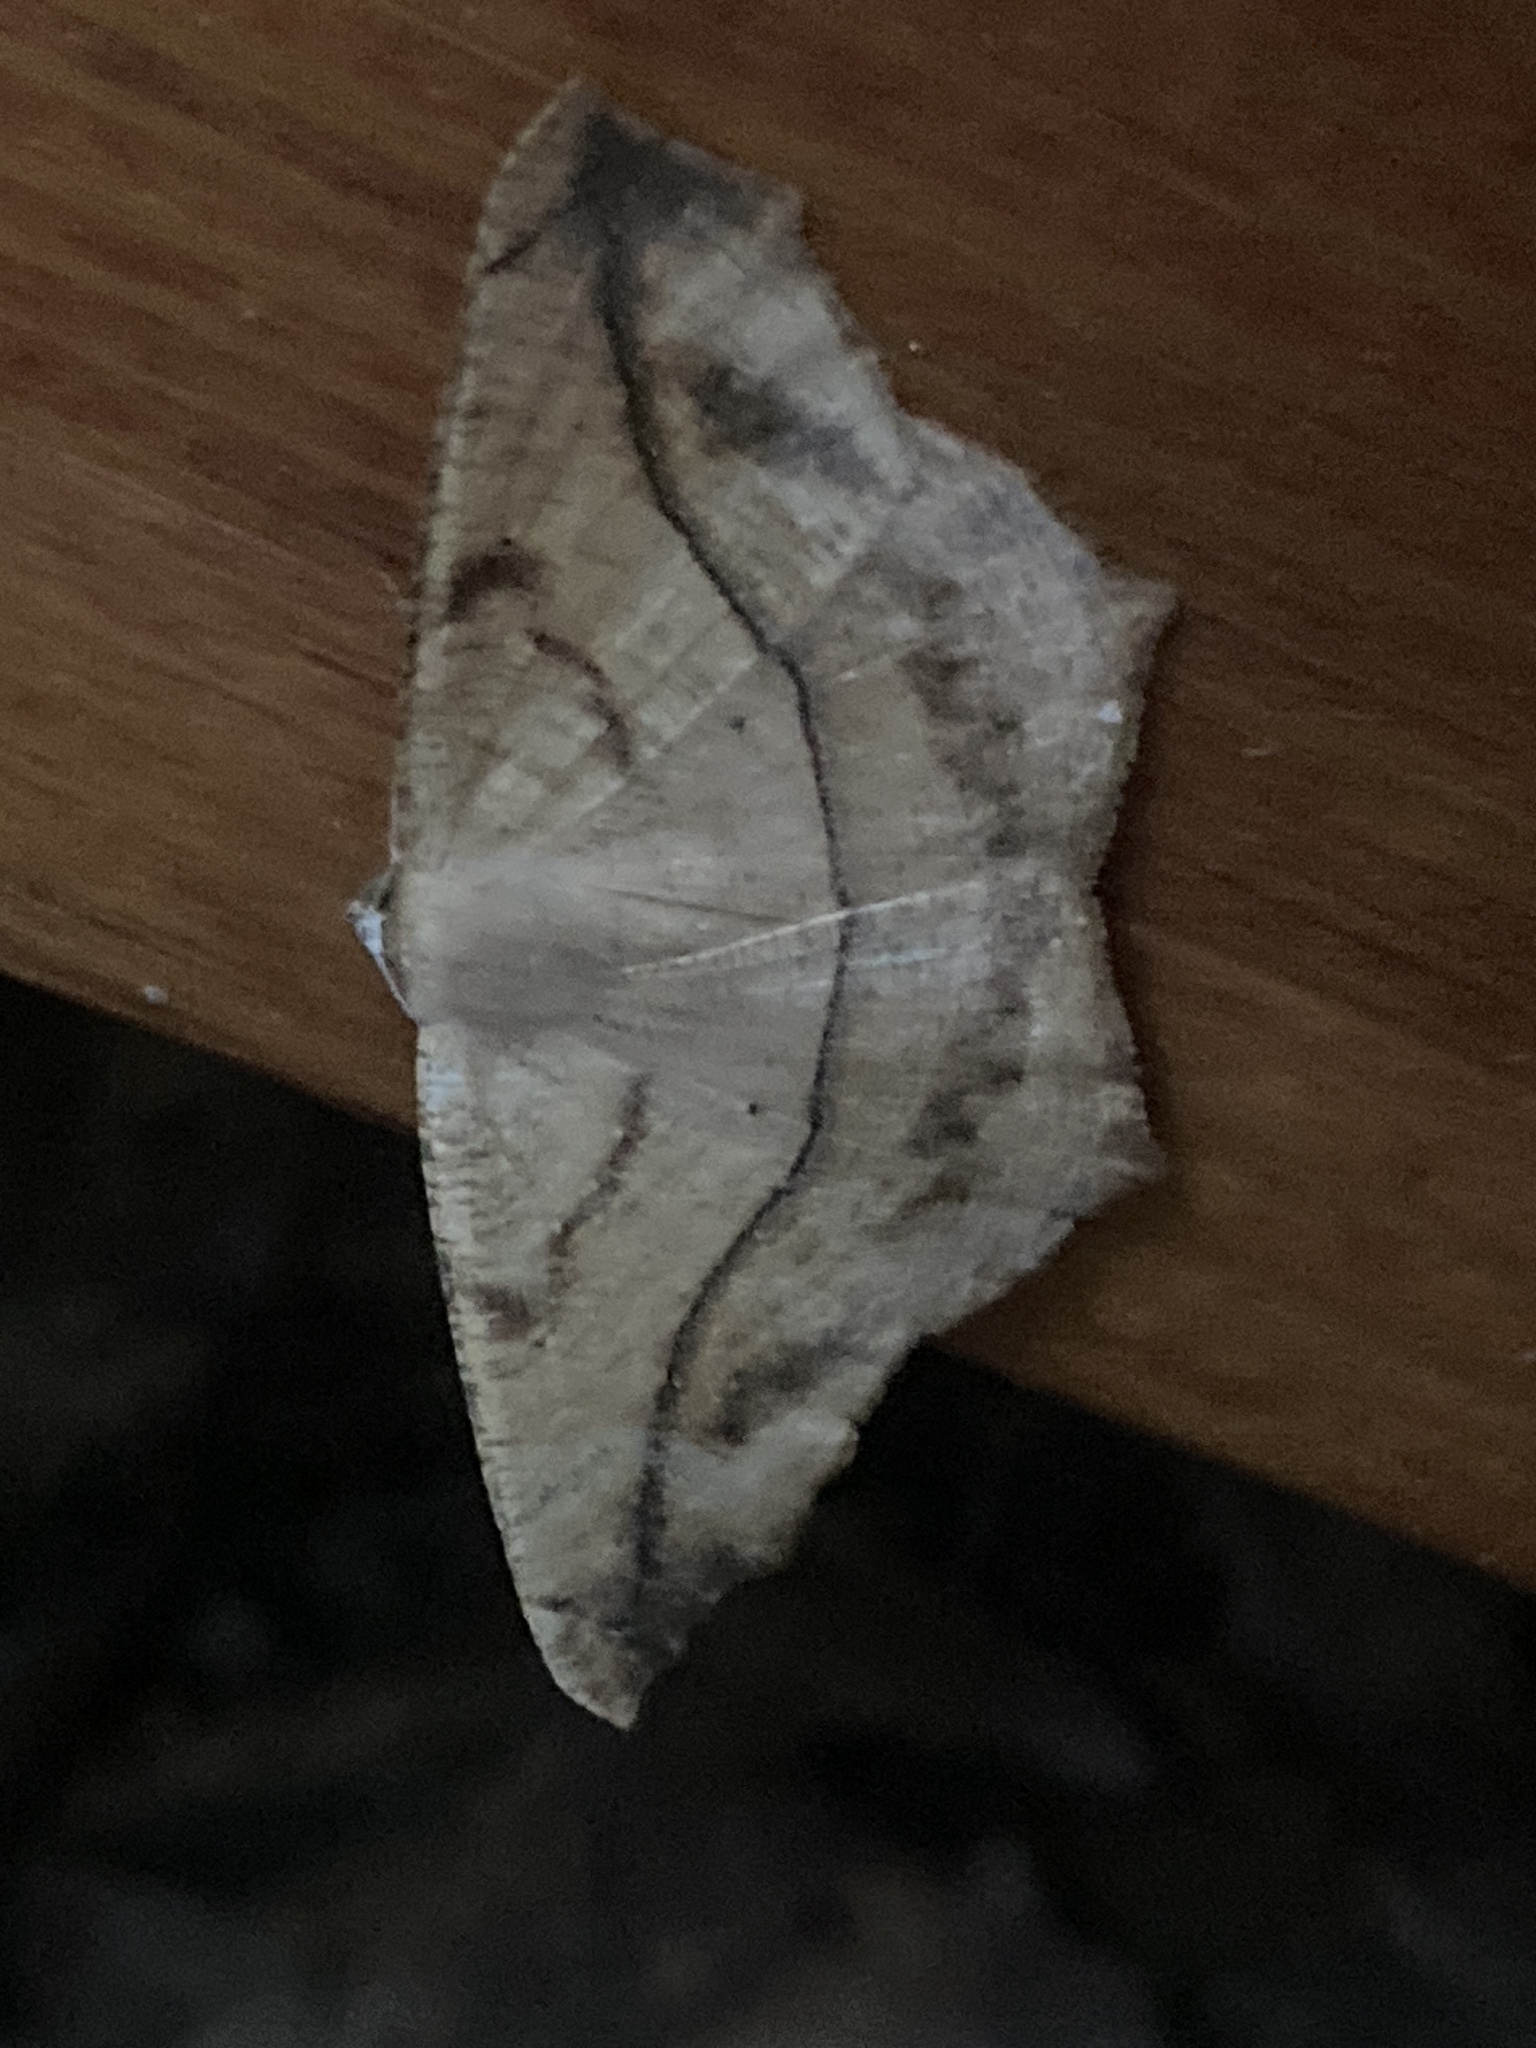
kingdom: Animalia
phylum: Arthropoda
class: Insecta
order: Lepidoptera
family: Geometridae
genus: Prochoerodes
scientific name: Prochoerodes lineola
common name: Large maple spanworm
